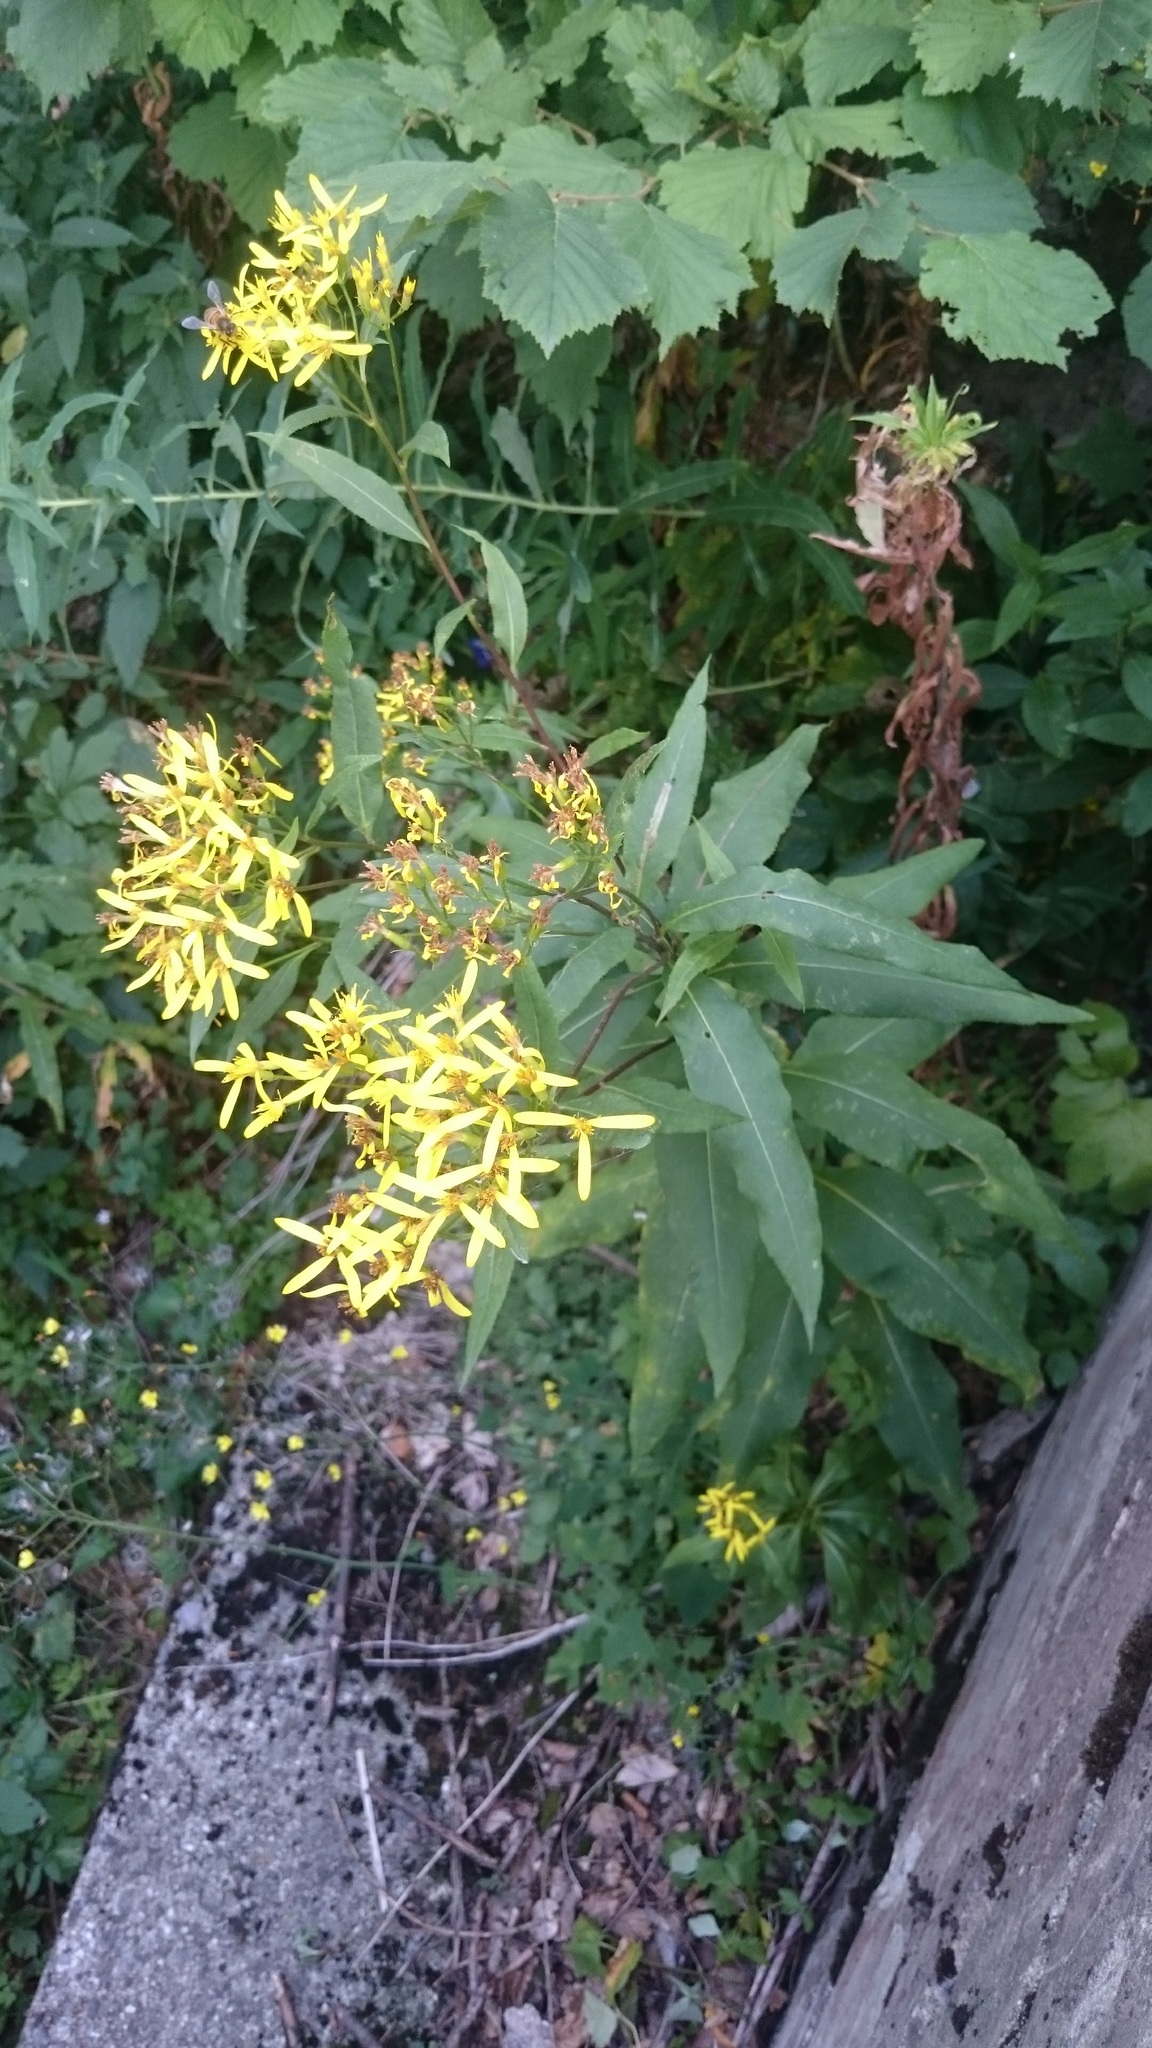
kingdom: Plantae
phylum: Tracheophyta
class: Magnoliopsida
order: Asterales
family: Asteraceae
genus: Senecio
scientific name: Senecio ovatus
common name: Wood ragwort
